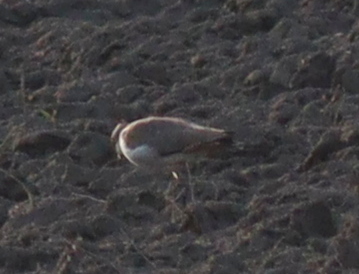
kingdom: Animalia
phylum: Chordata
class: Aves
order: Charadriiformes
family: Charadriidae
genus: Vanellus
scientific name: Vanellus vanellus
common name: Northern lapwing
